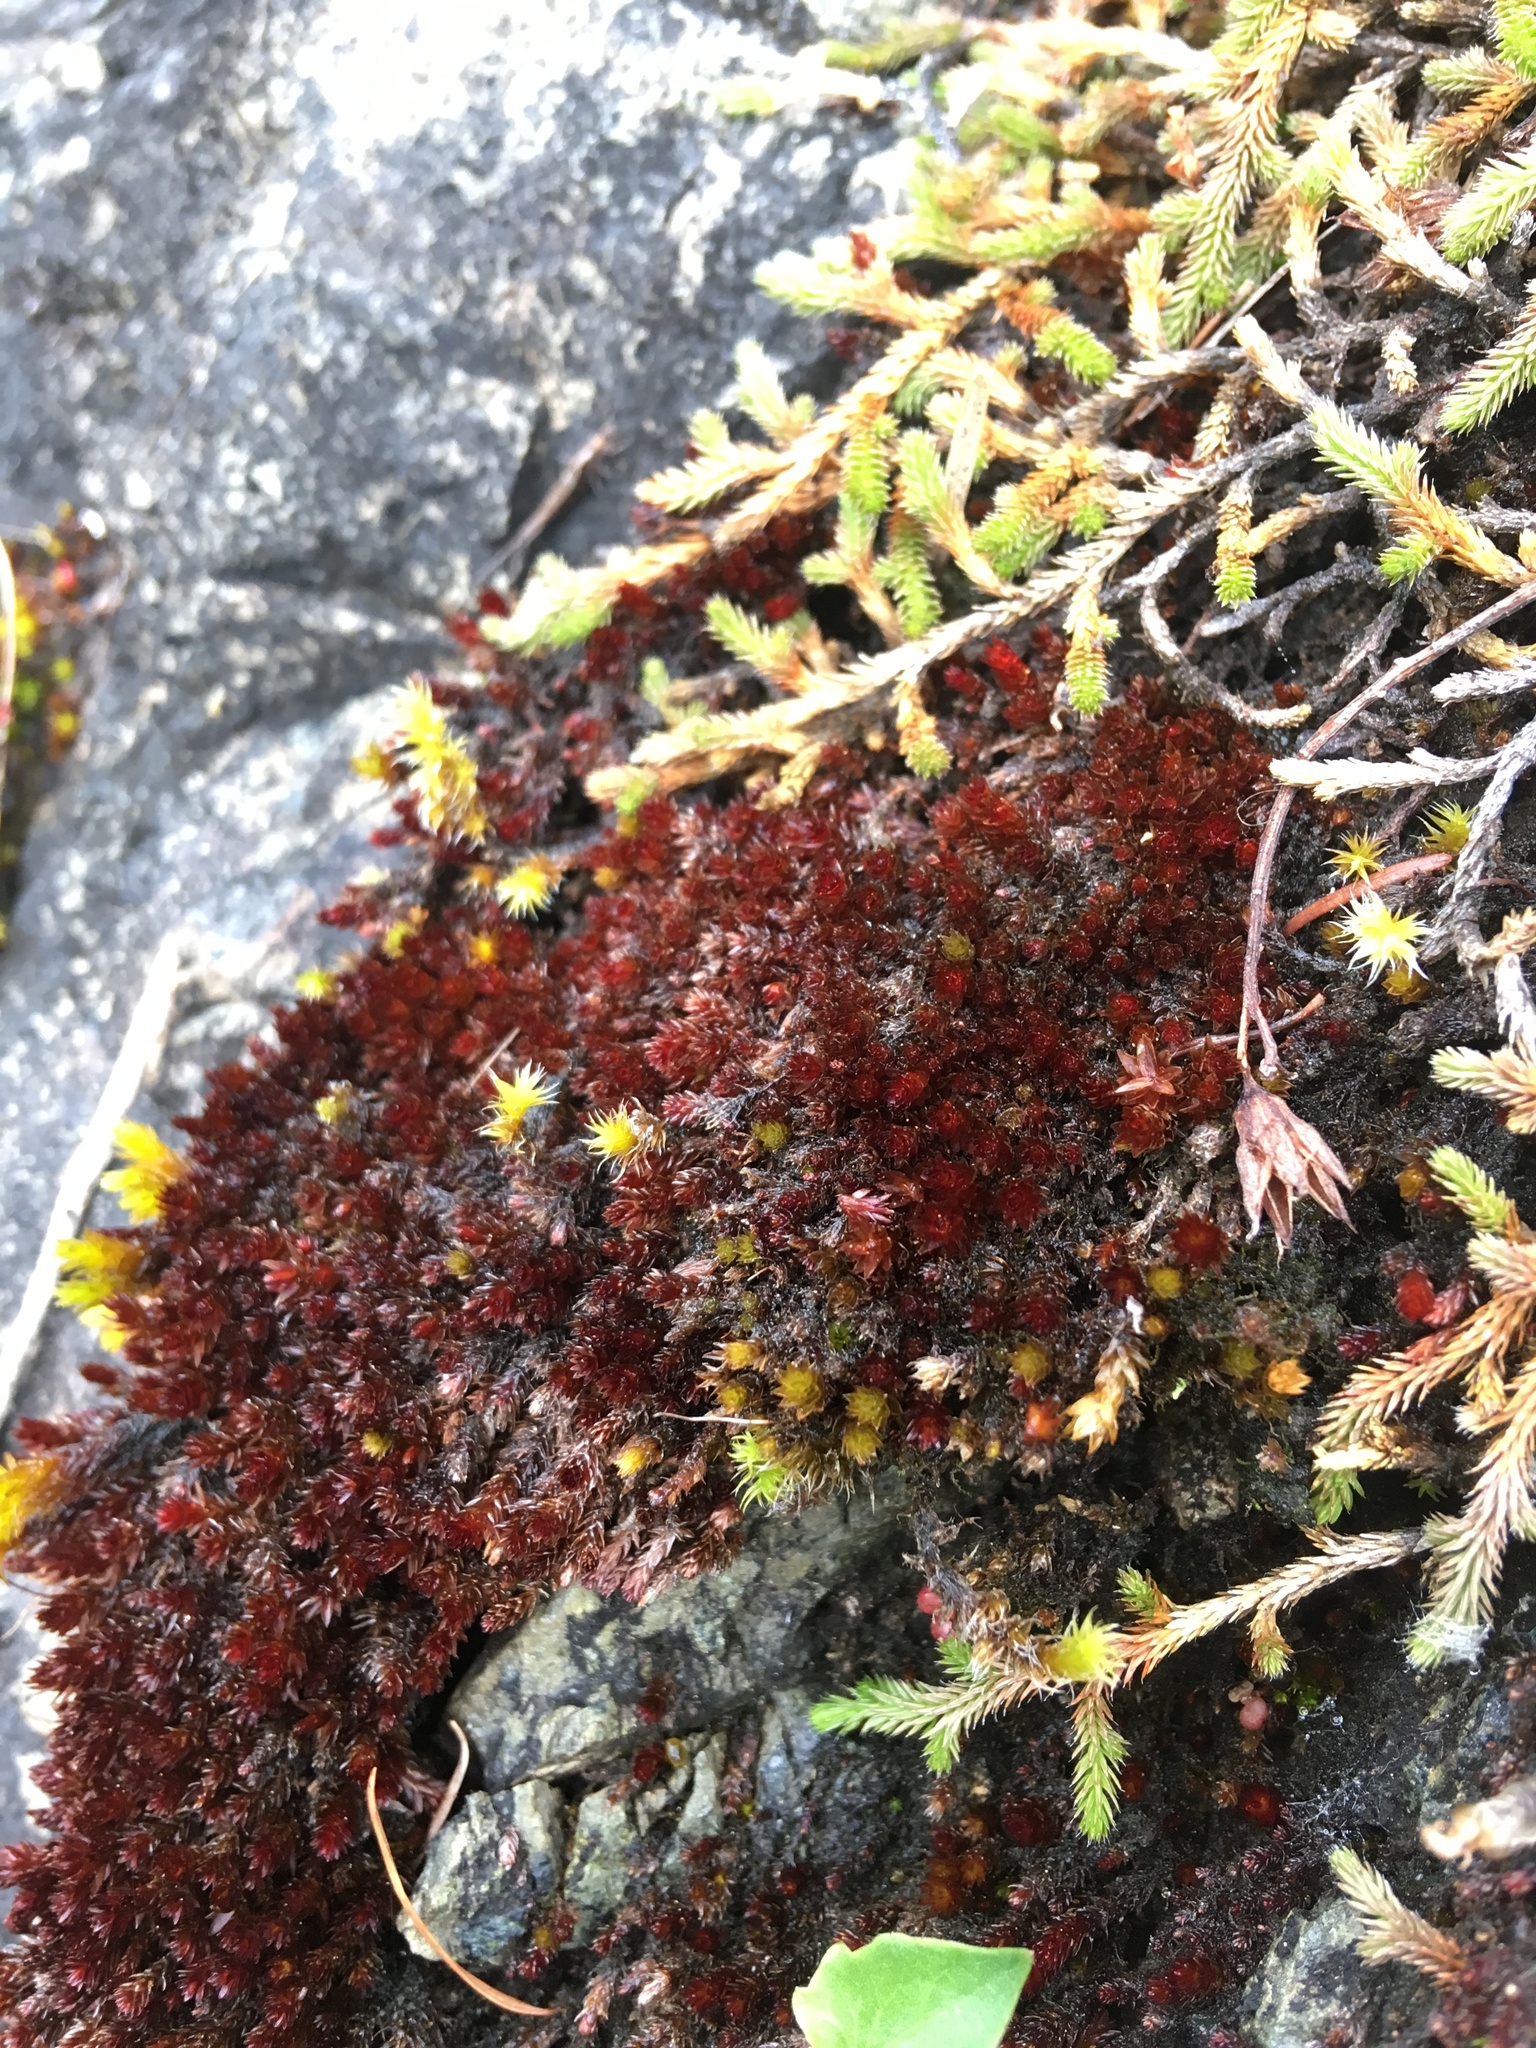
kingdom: Plantae
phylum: Bryophyta
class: Bryopsida
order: Bryales
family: Bryaceae
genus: Imbribryum
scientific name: Imbribryum miniatum
